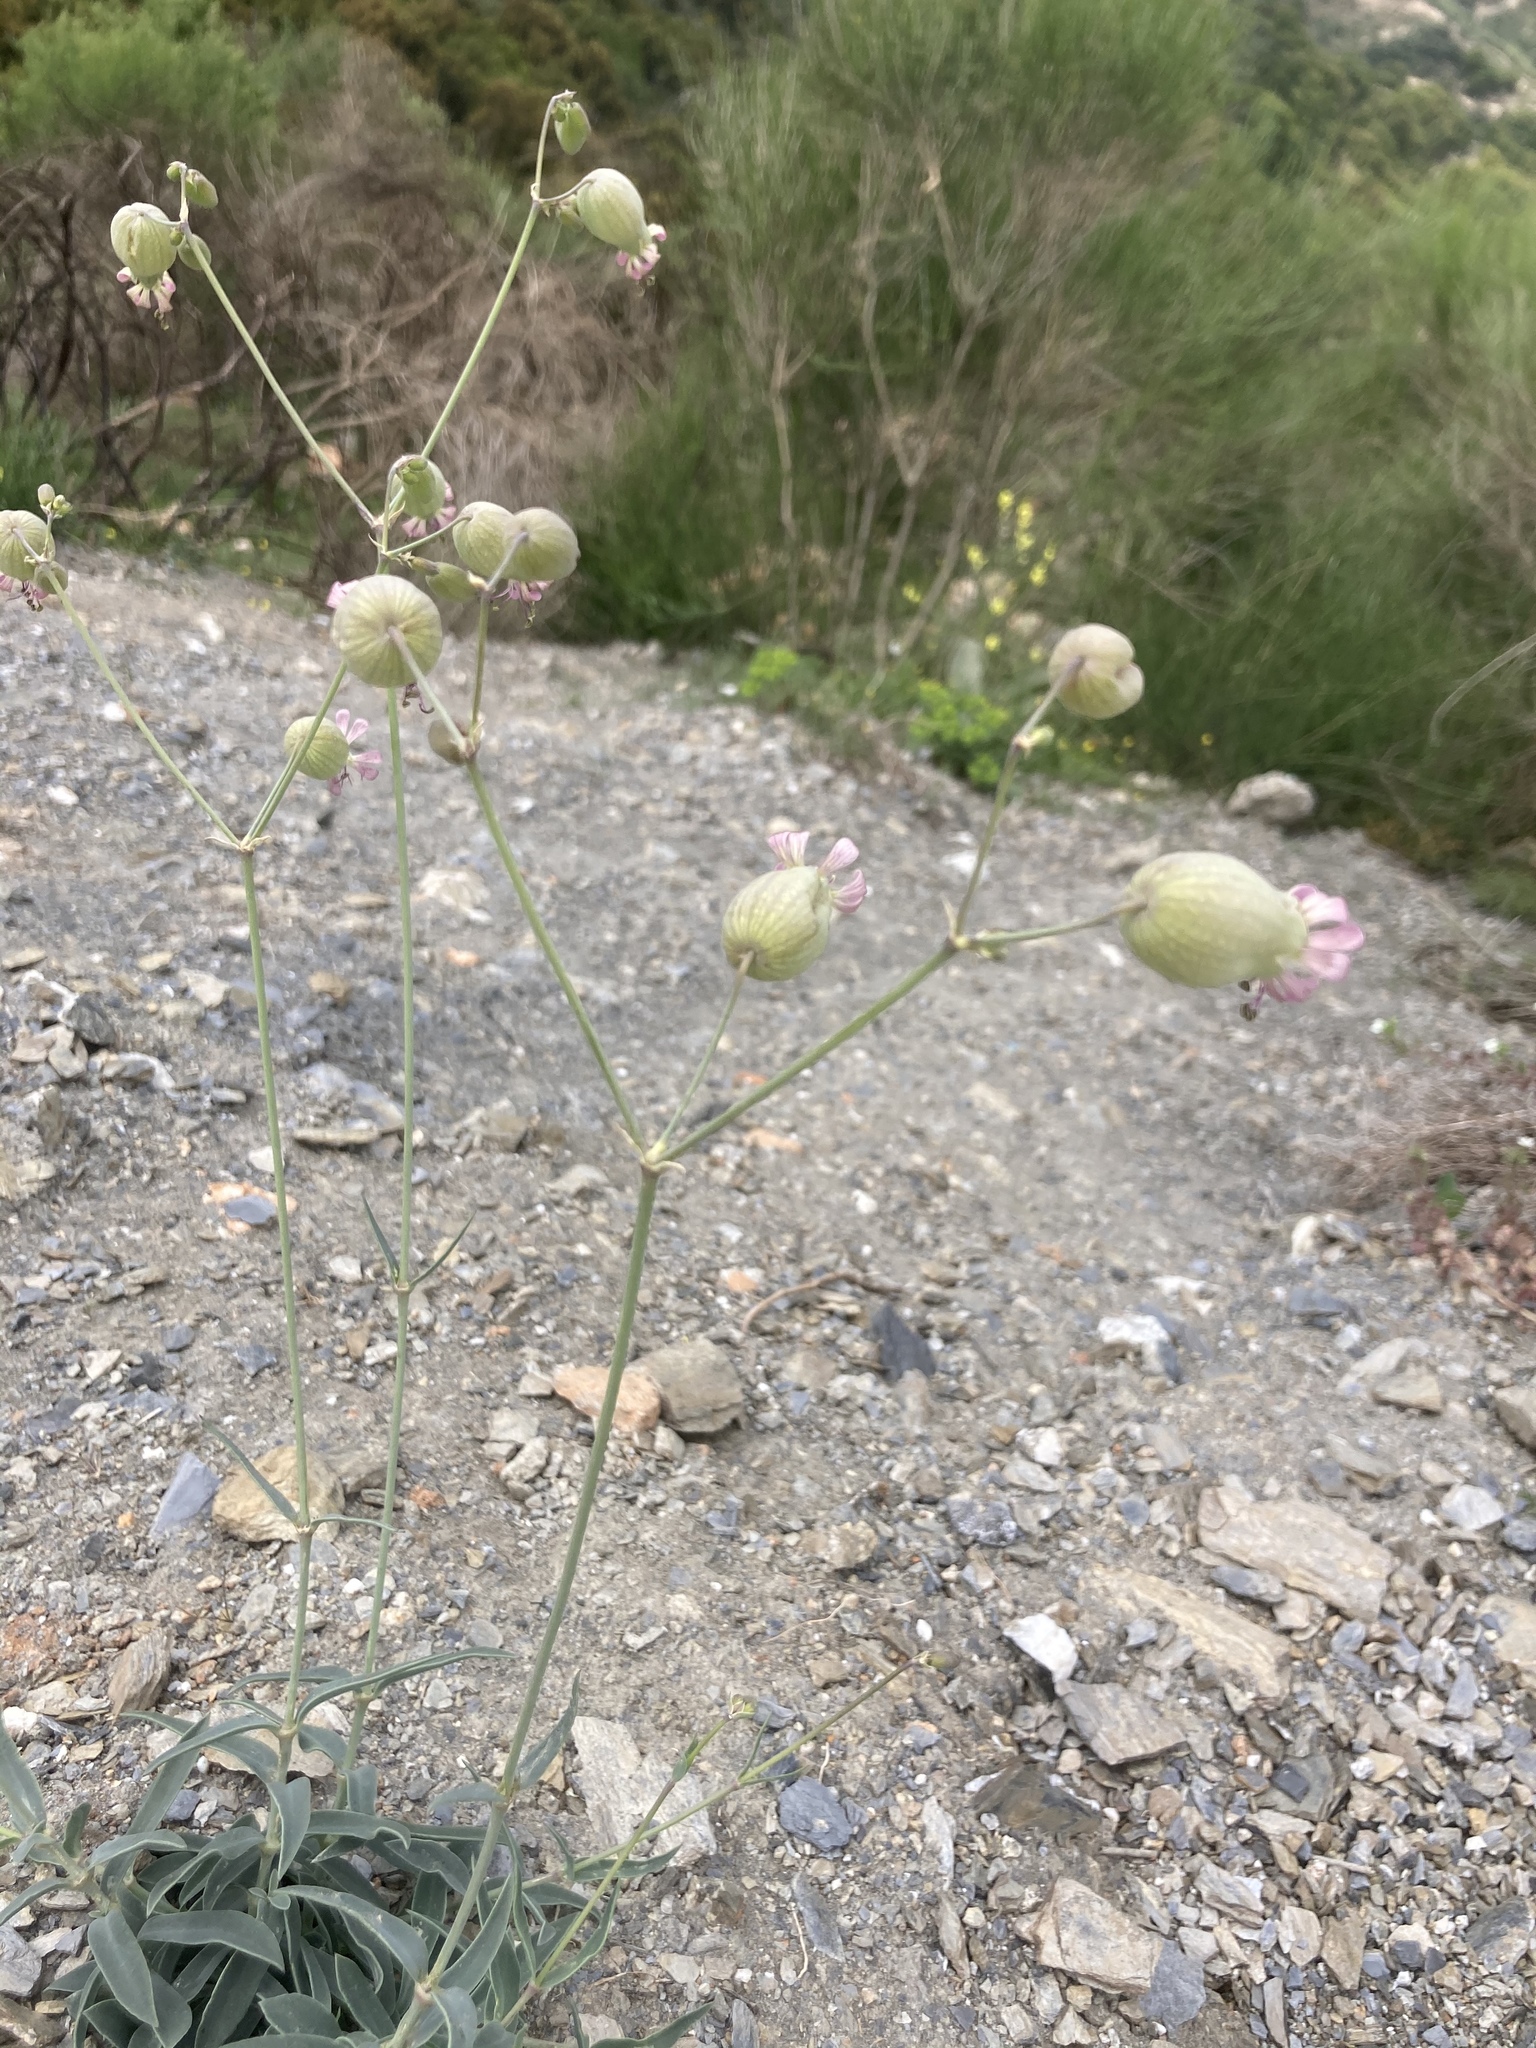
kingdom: Plantae
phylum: Tracheophyta
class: Magnoliopsida
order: Caryophyllales
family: Caryophyllaceae
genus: Silene
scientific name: Silene vulgaris
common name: Bladder campion
